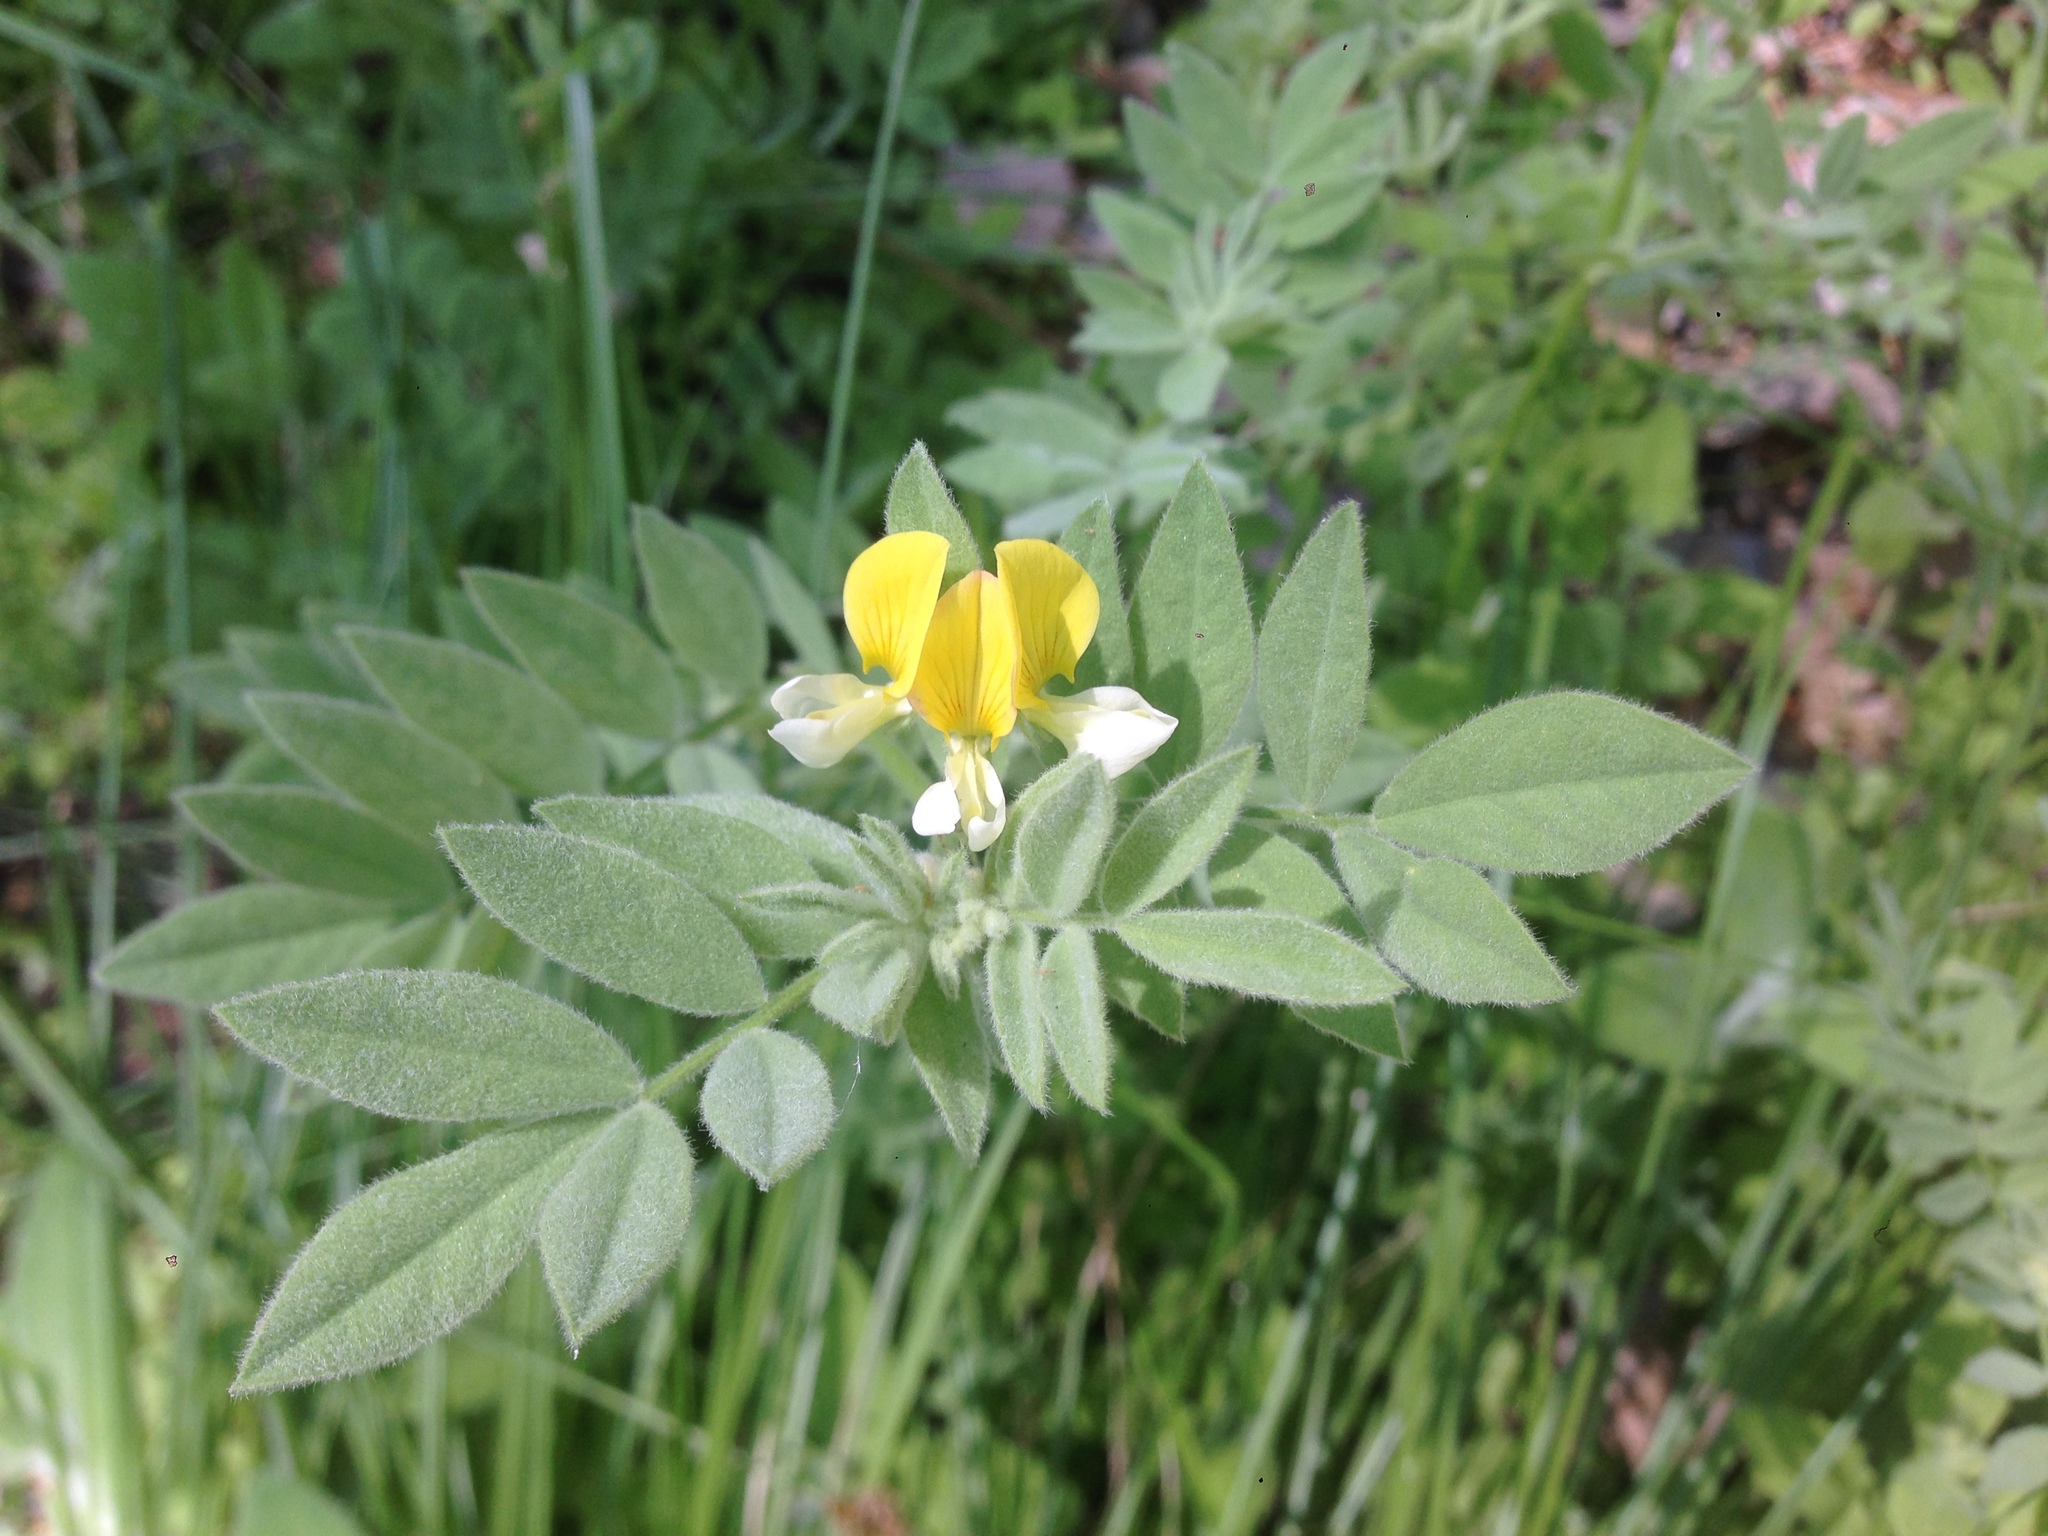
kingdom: Plantae
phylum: Tracheophyta
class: Magnoliopsida
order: Fabales
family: Fabaceae
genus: Hosackia
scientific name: Hosackia oblongifolia
